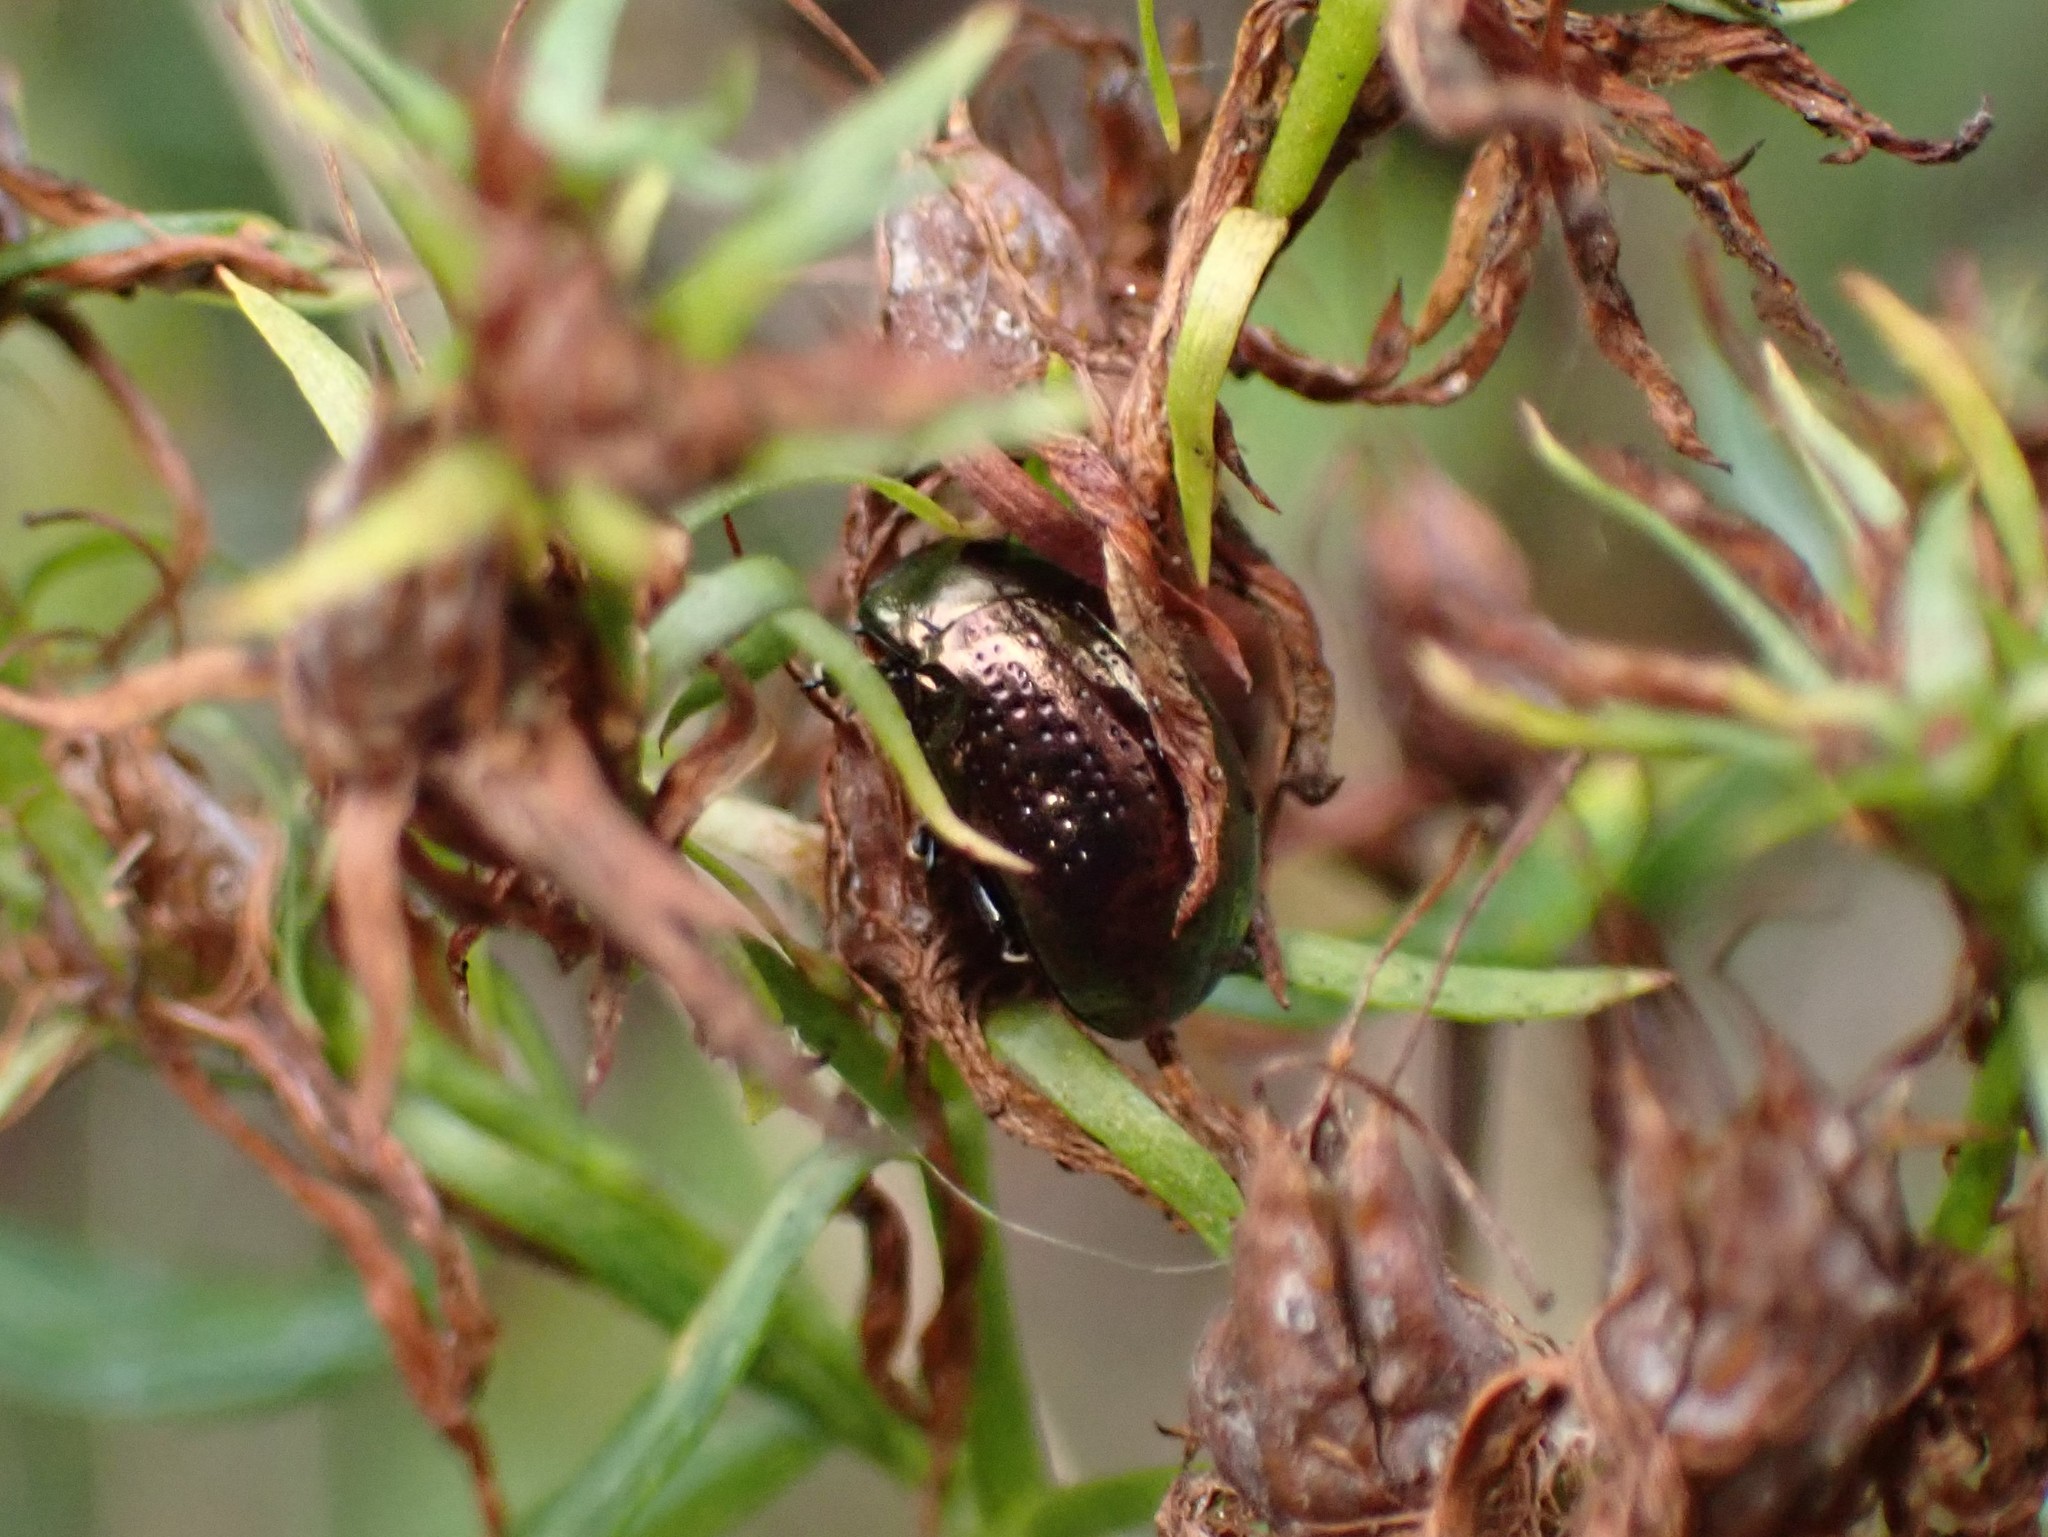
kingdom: Animalia
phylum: Arthropoda
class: Insecta
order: Coleoptera
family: Chrysomelidae
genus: Chrysolina
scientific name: Chrysolina hyperici
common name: St. johnswort beetle
